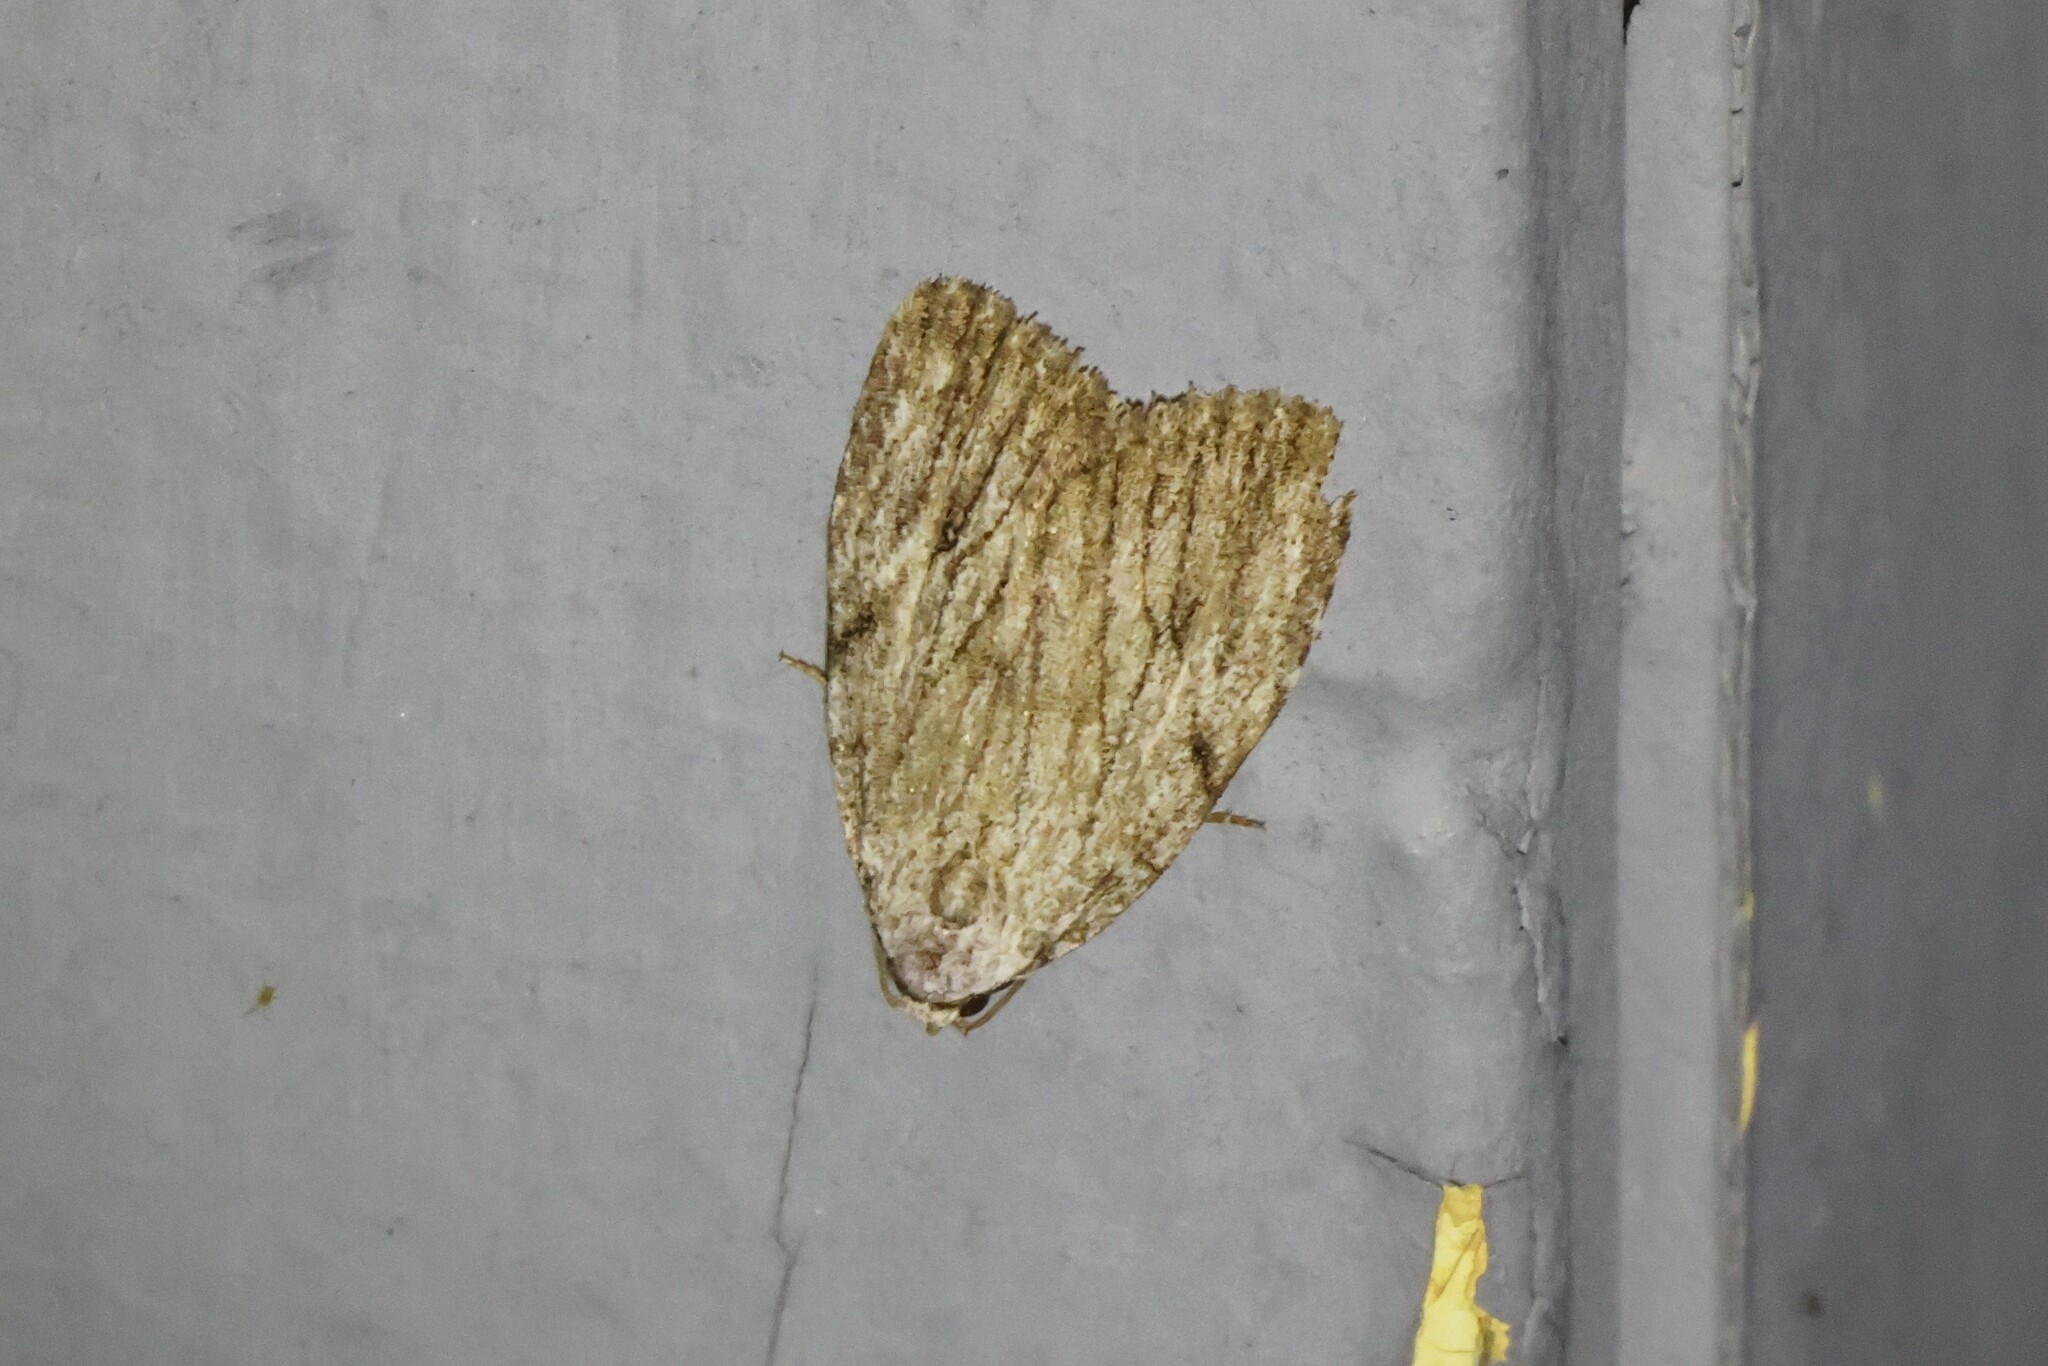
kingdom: Animalia
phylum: Arthropoda
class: Insecta
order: Lepidoptera
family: Noctuidae
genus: Balsa
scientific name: Balsa tristrigella
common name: Three-lined balsa moth
